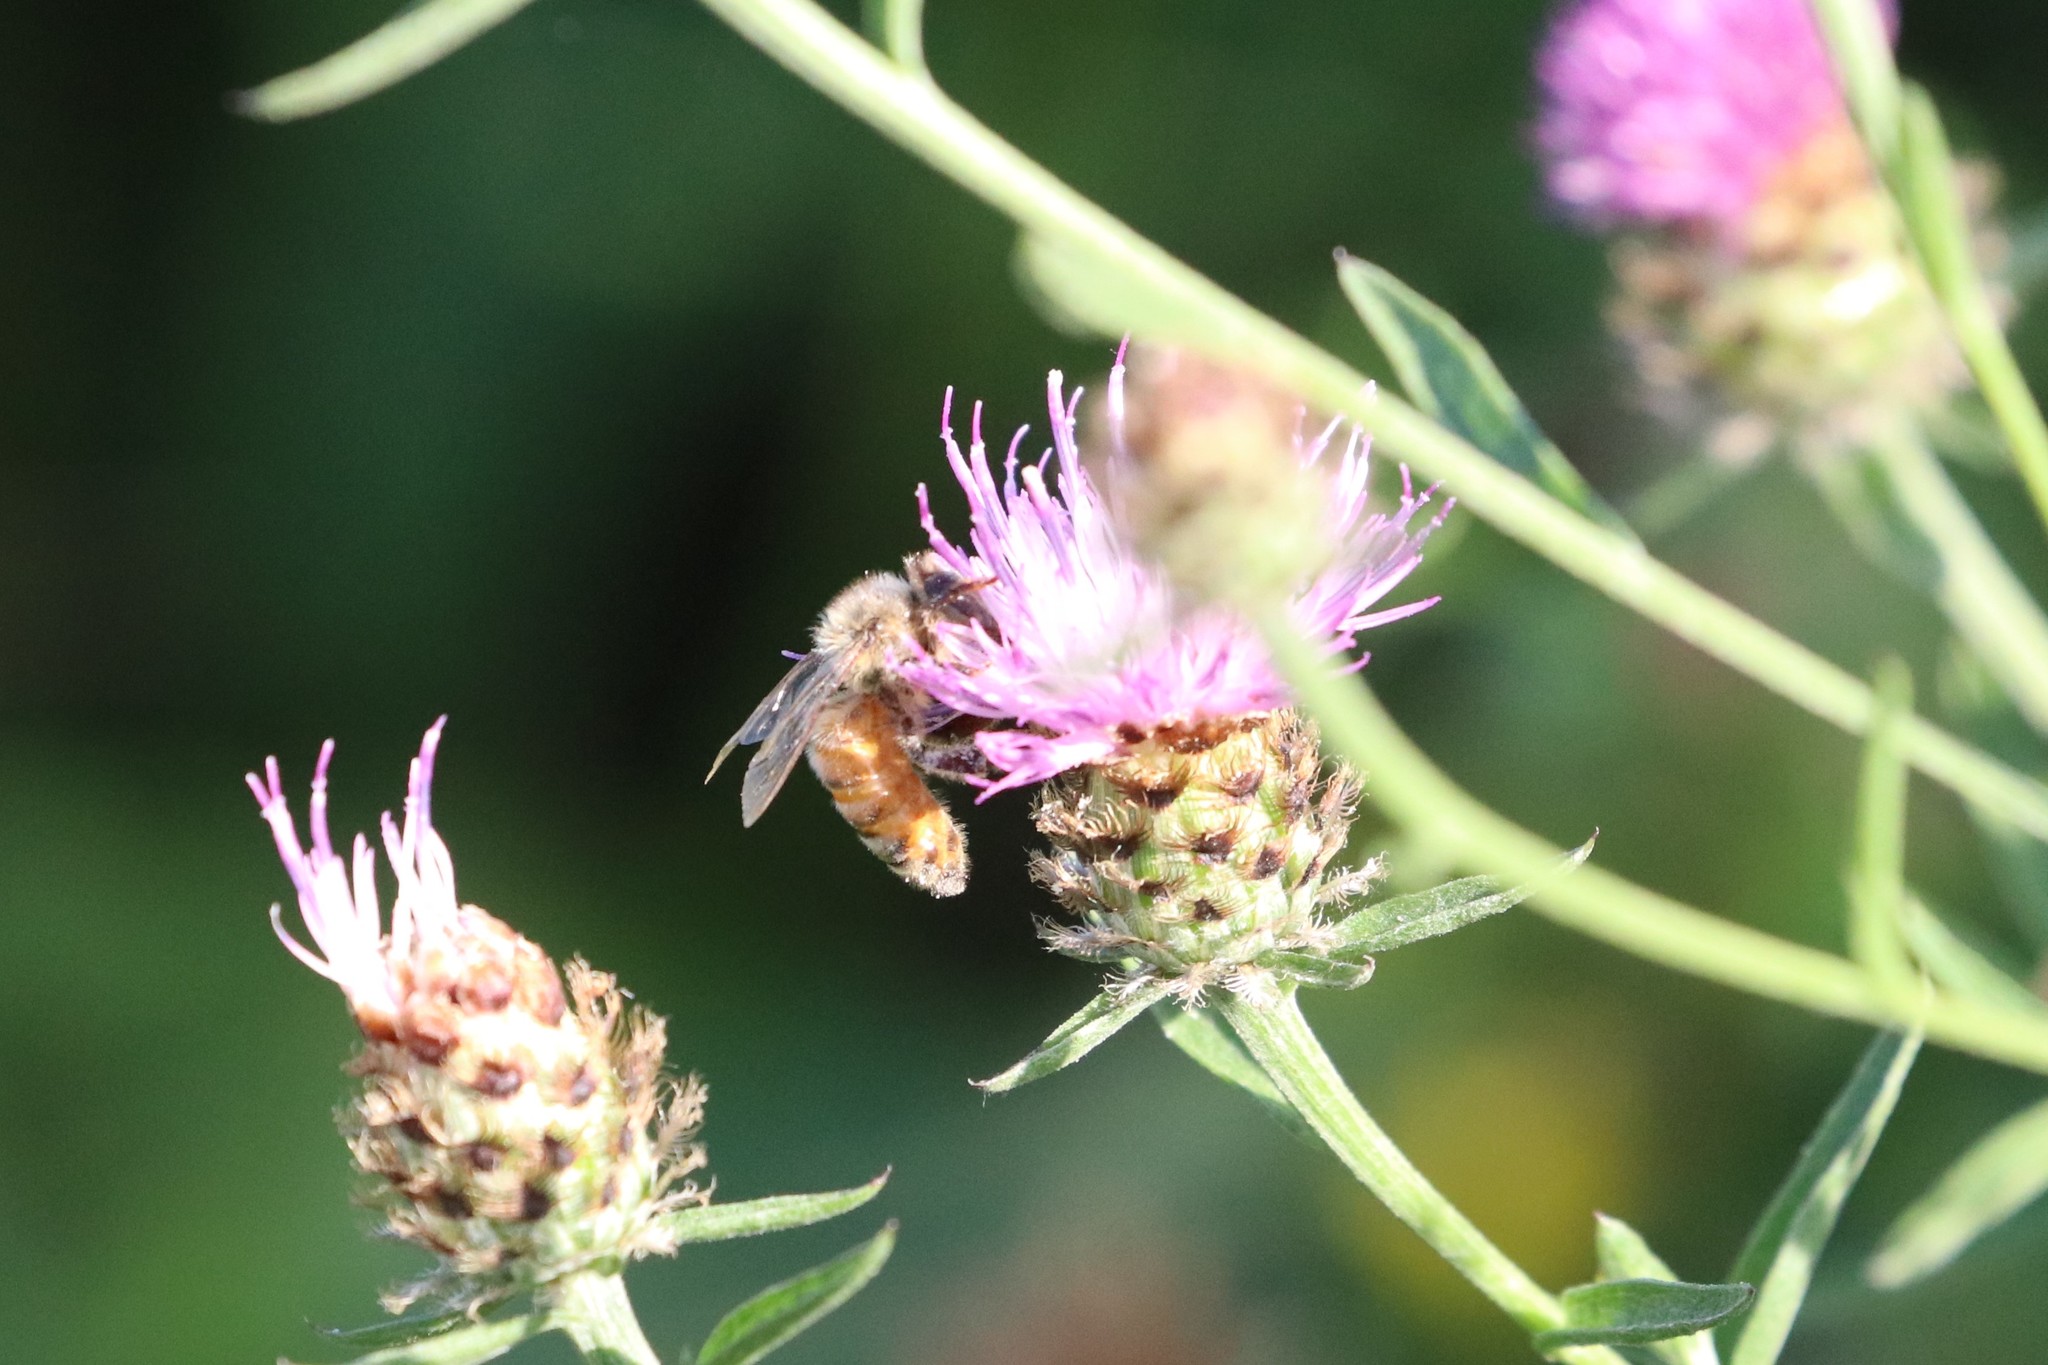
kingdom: Plantae
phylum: Tracheophyta
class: Magnoliopsida
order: Asterales
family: Asteraceae
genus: Centaurea
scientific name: Centaurea nigra
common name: Lesser knapweed
